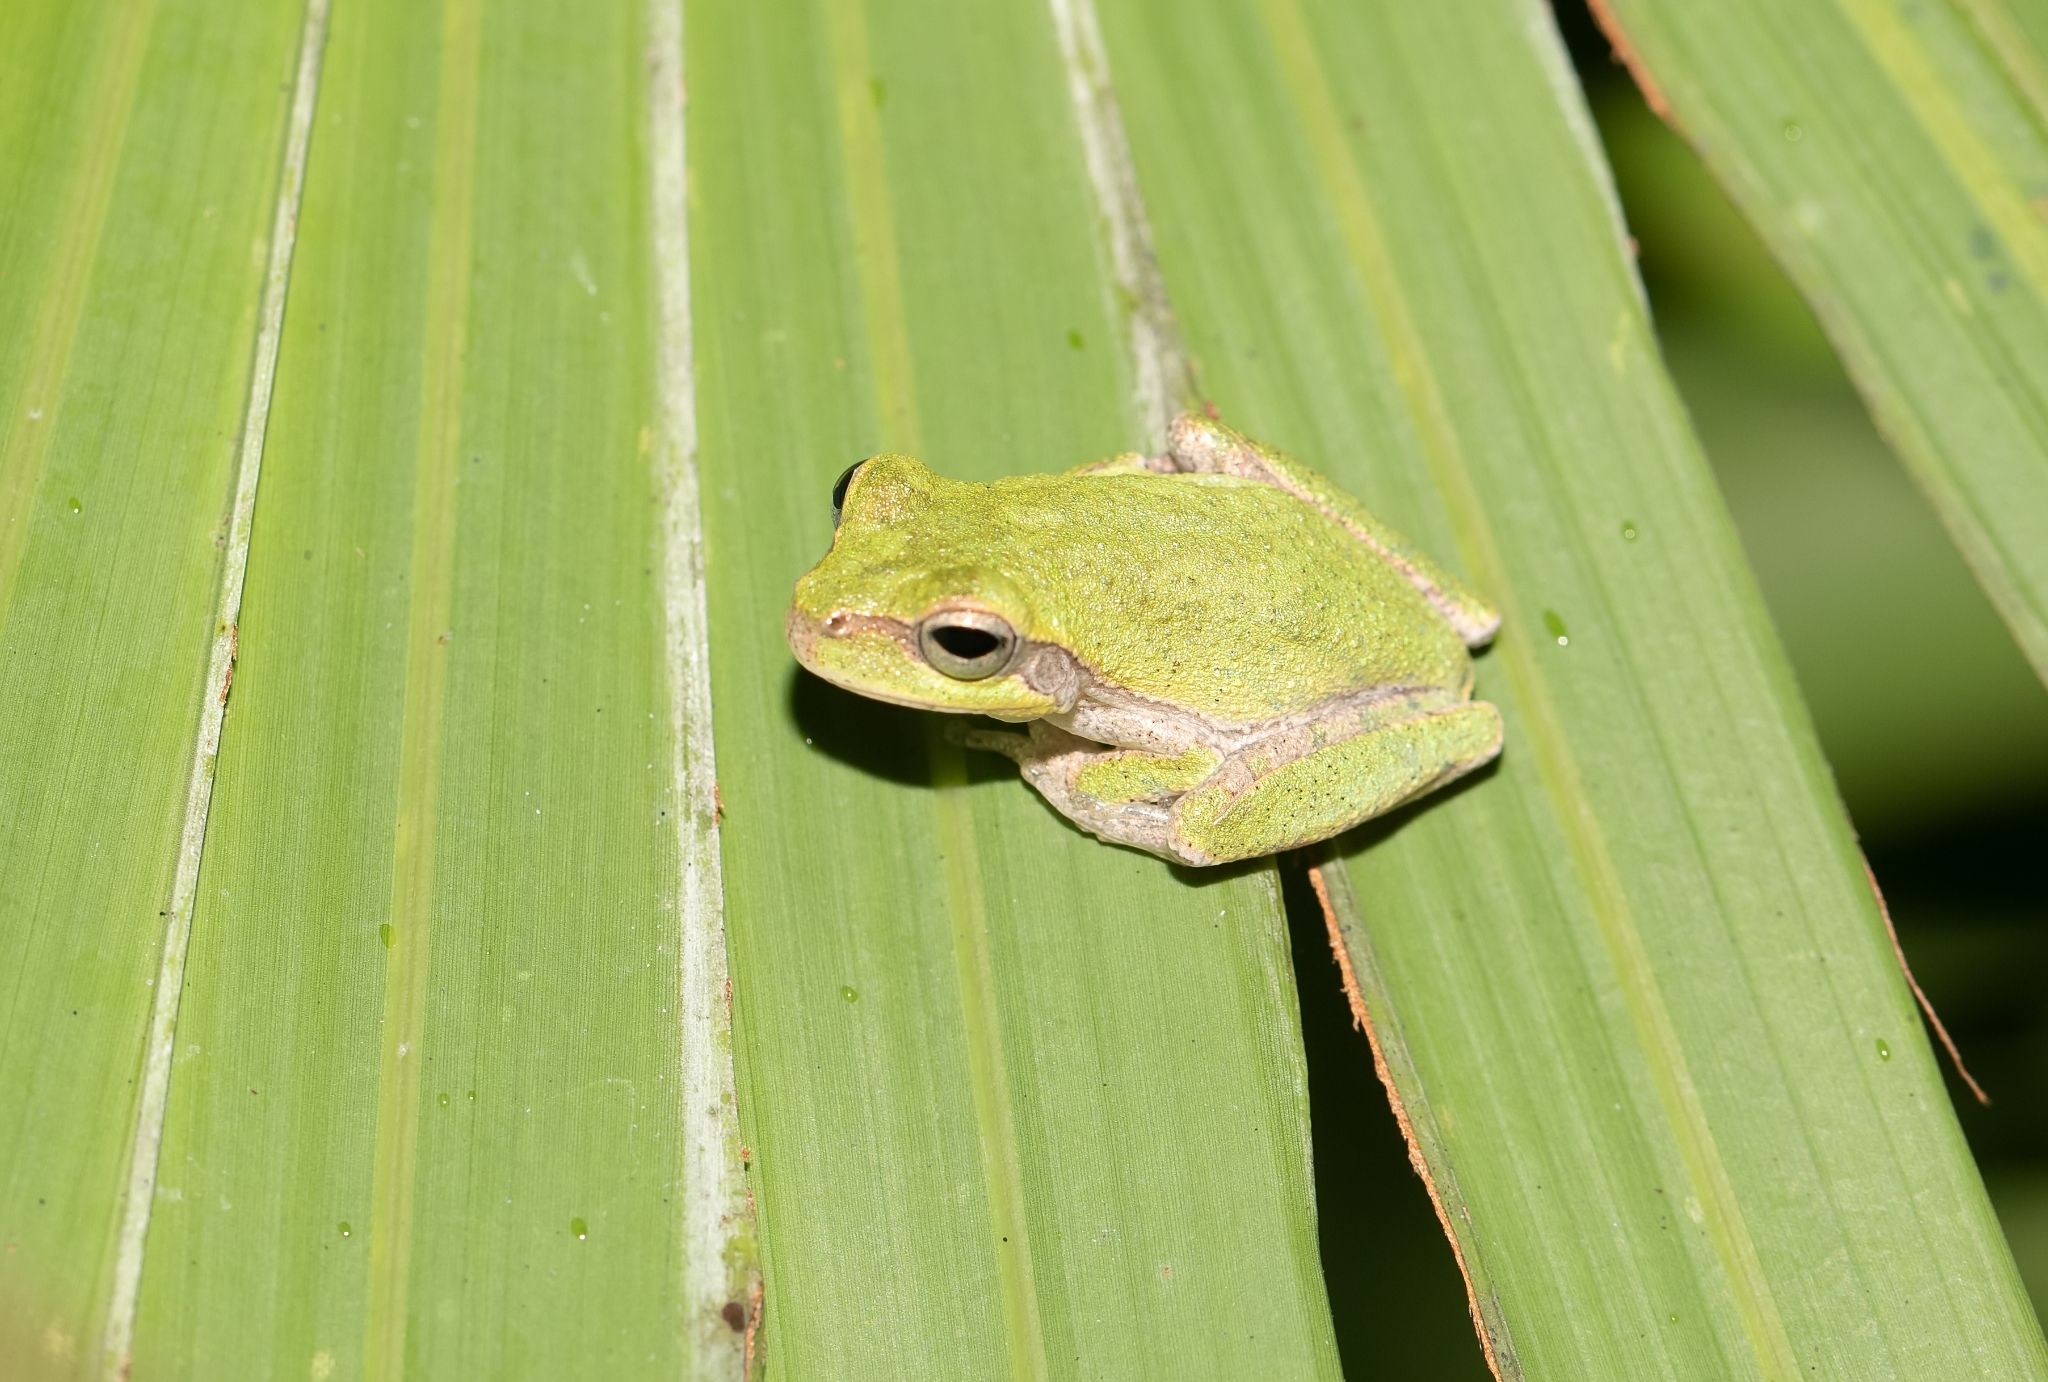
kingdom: Animalia
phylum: Chordata
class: Amphibia
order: Anura
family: Hylidae
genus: Hyla
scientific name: Hyla femoralis
